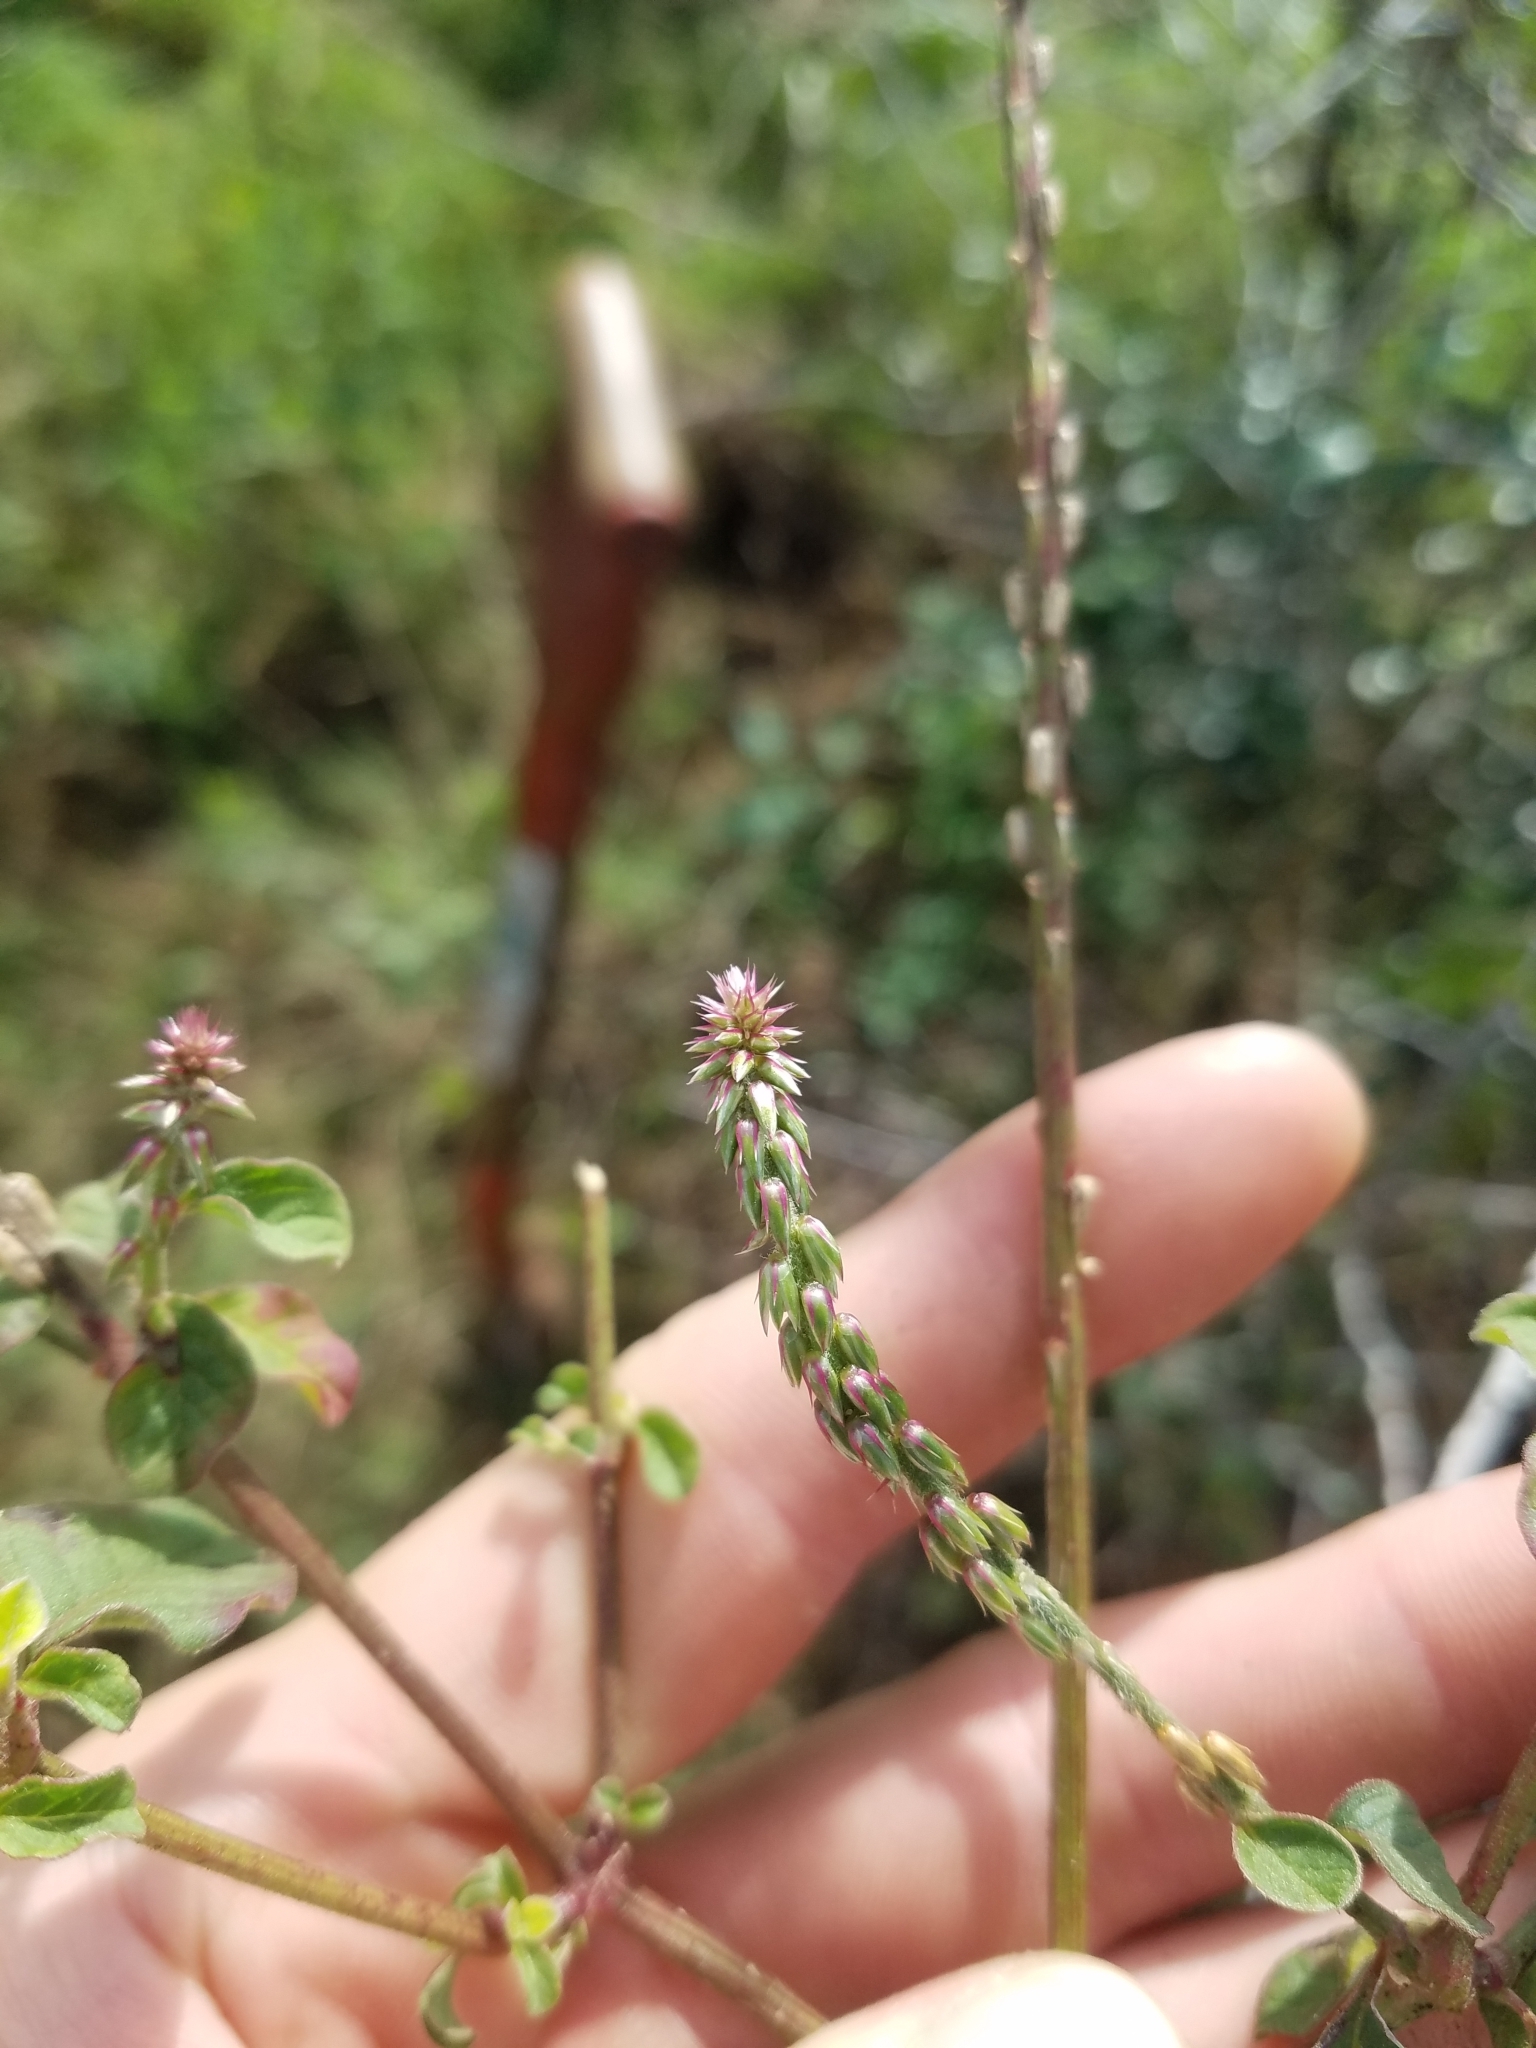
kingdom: Plantae
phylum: Tracheophyta
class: Magnoliopsida
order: Caryophyllales
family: Amaranthaceae
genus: Achyranthes
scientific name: Achyranthes aspera
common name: Devil's horsewhip
